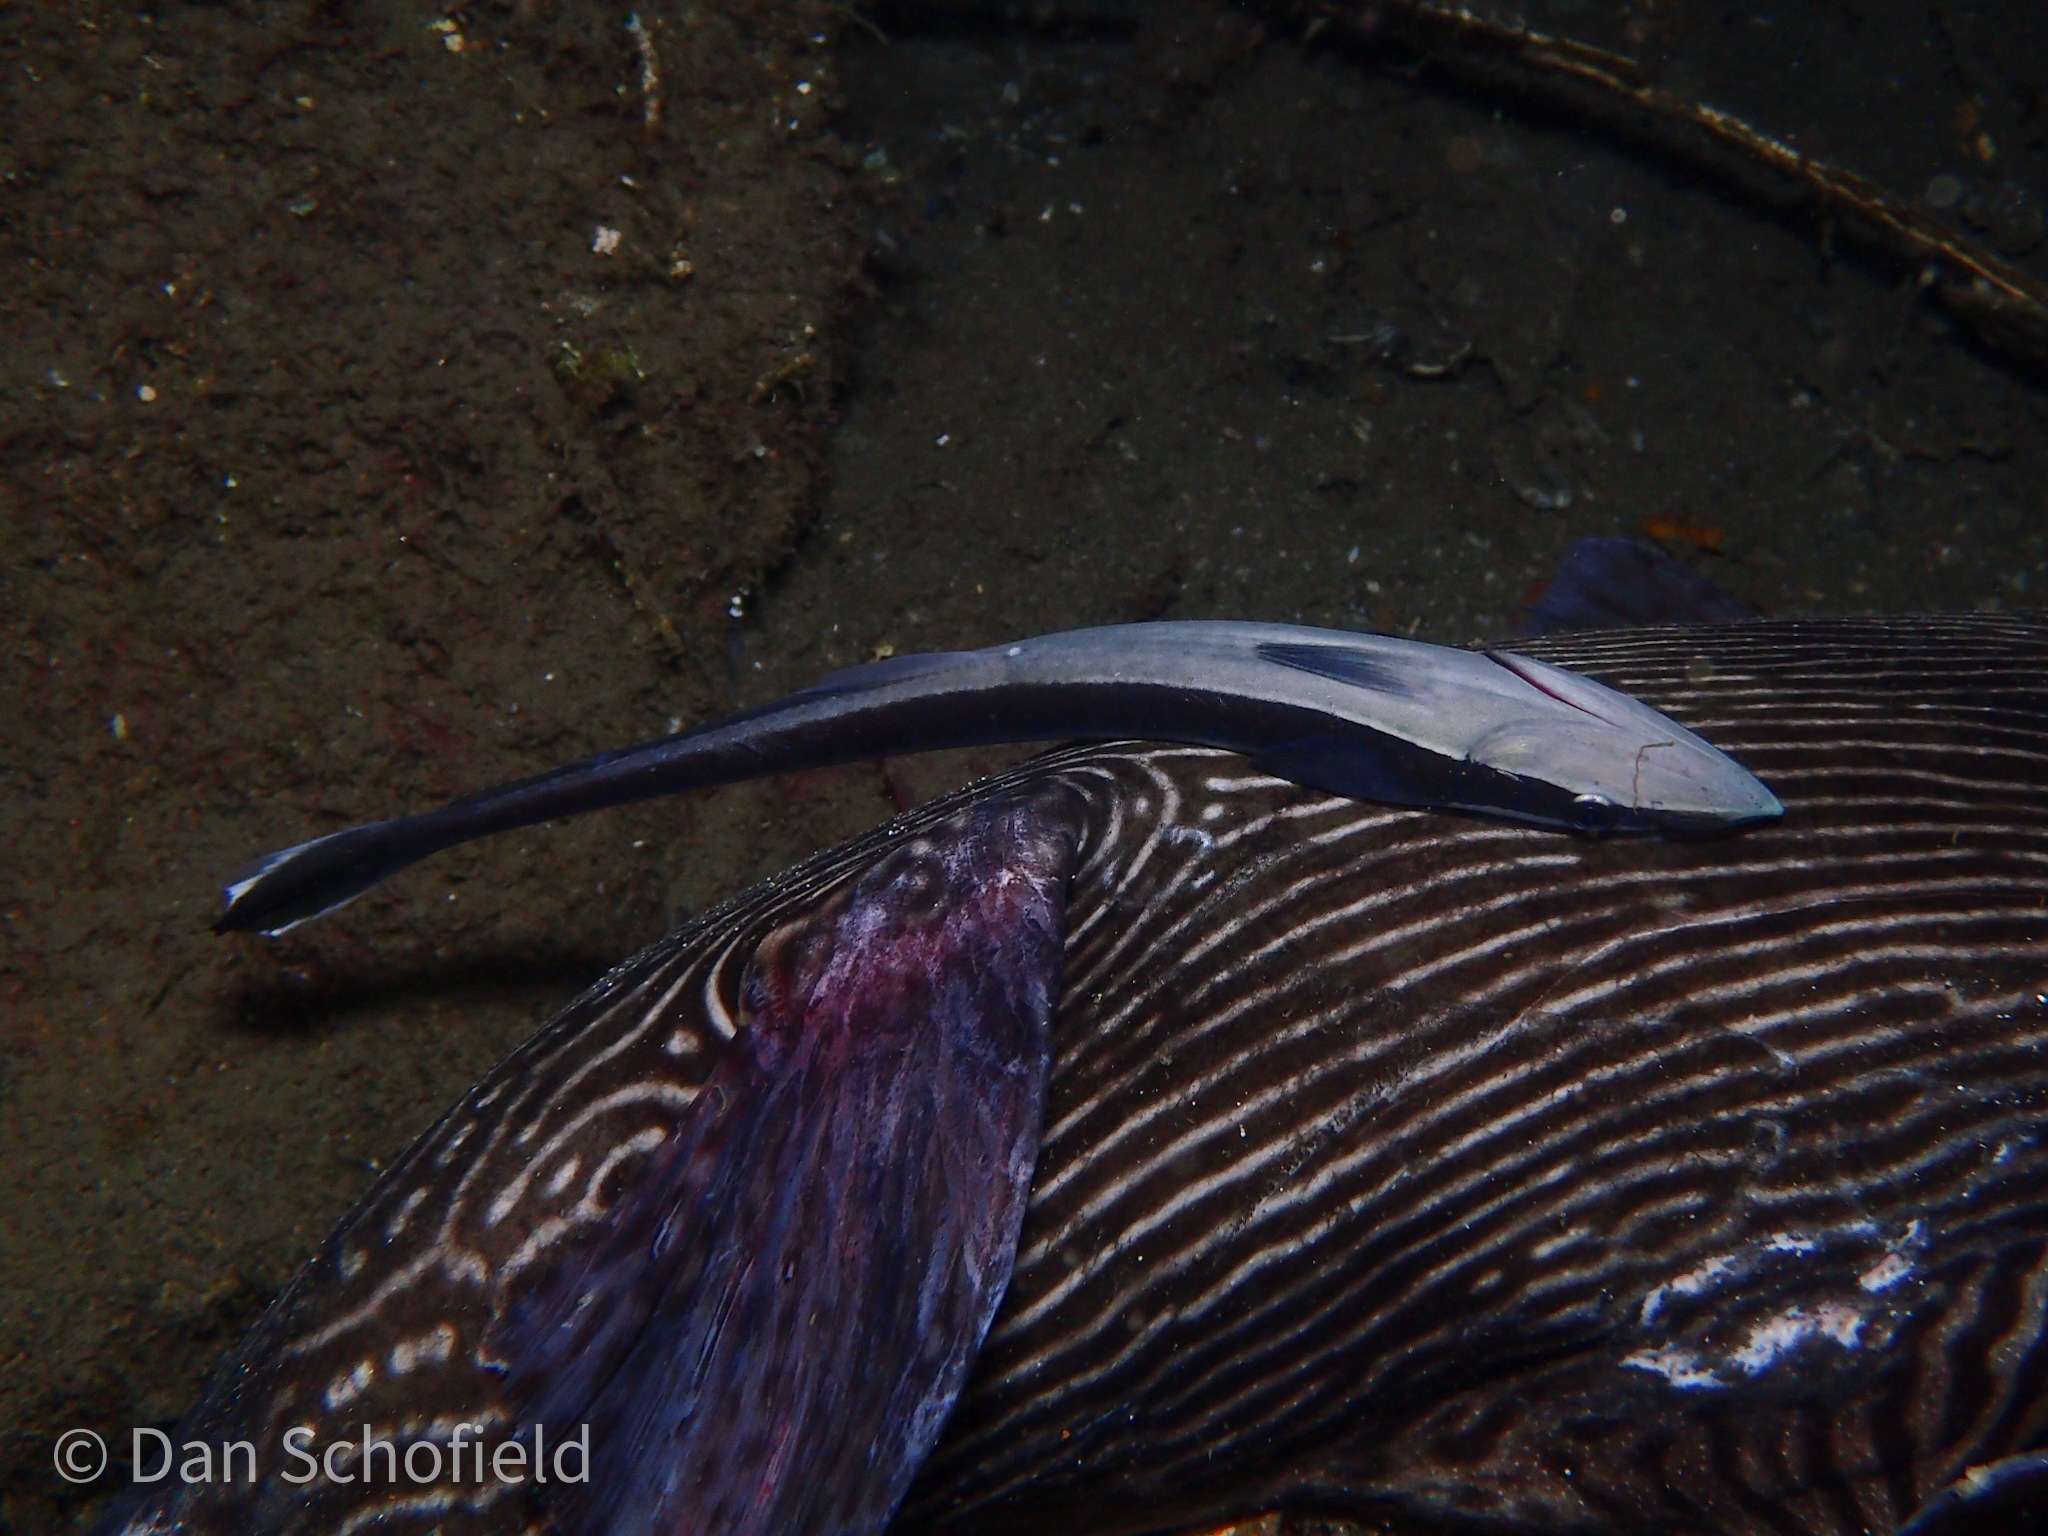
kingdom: Animalia
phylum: Chordata
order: Perciformes
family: Echeneidae
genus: Echeneis
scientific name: Echeneis naucrates
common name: Sharksucker
